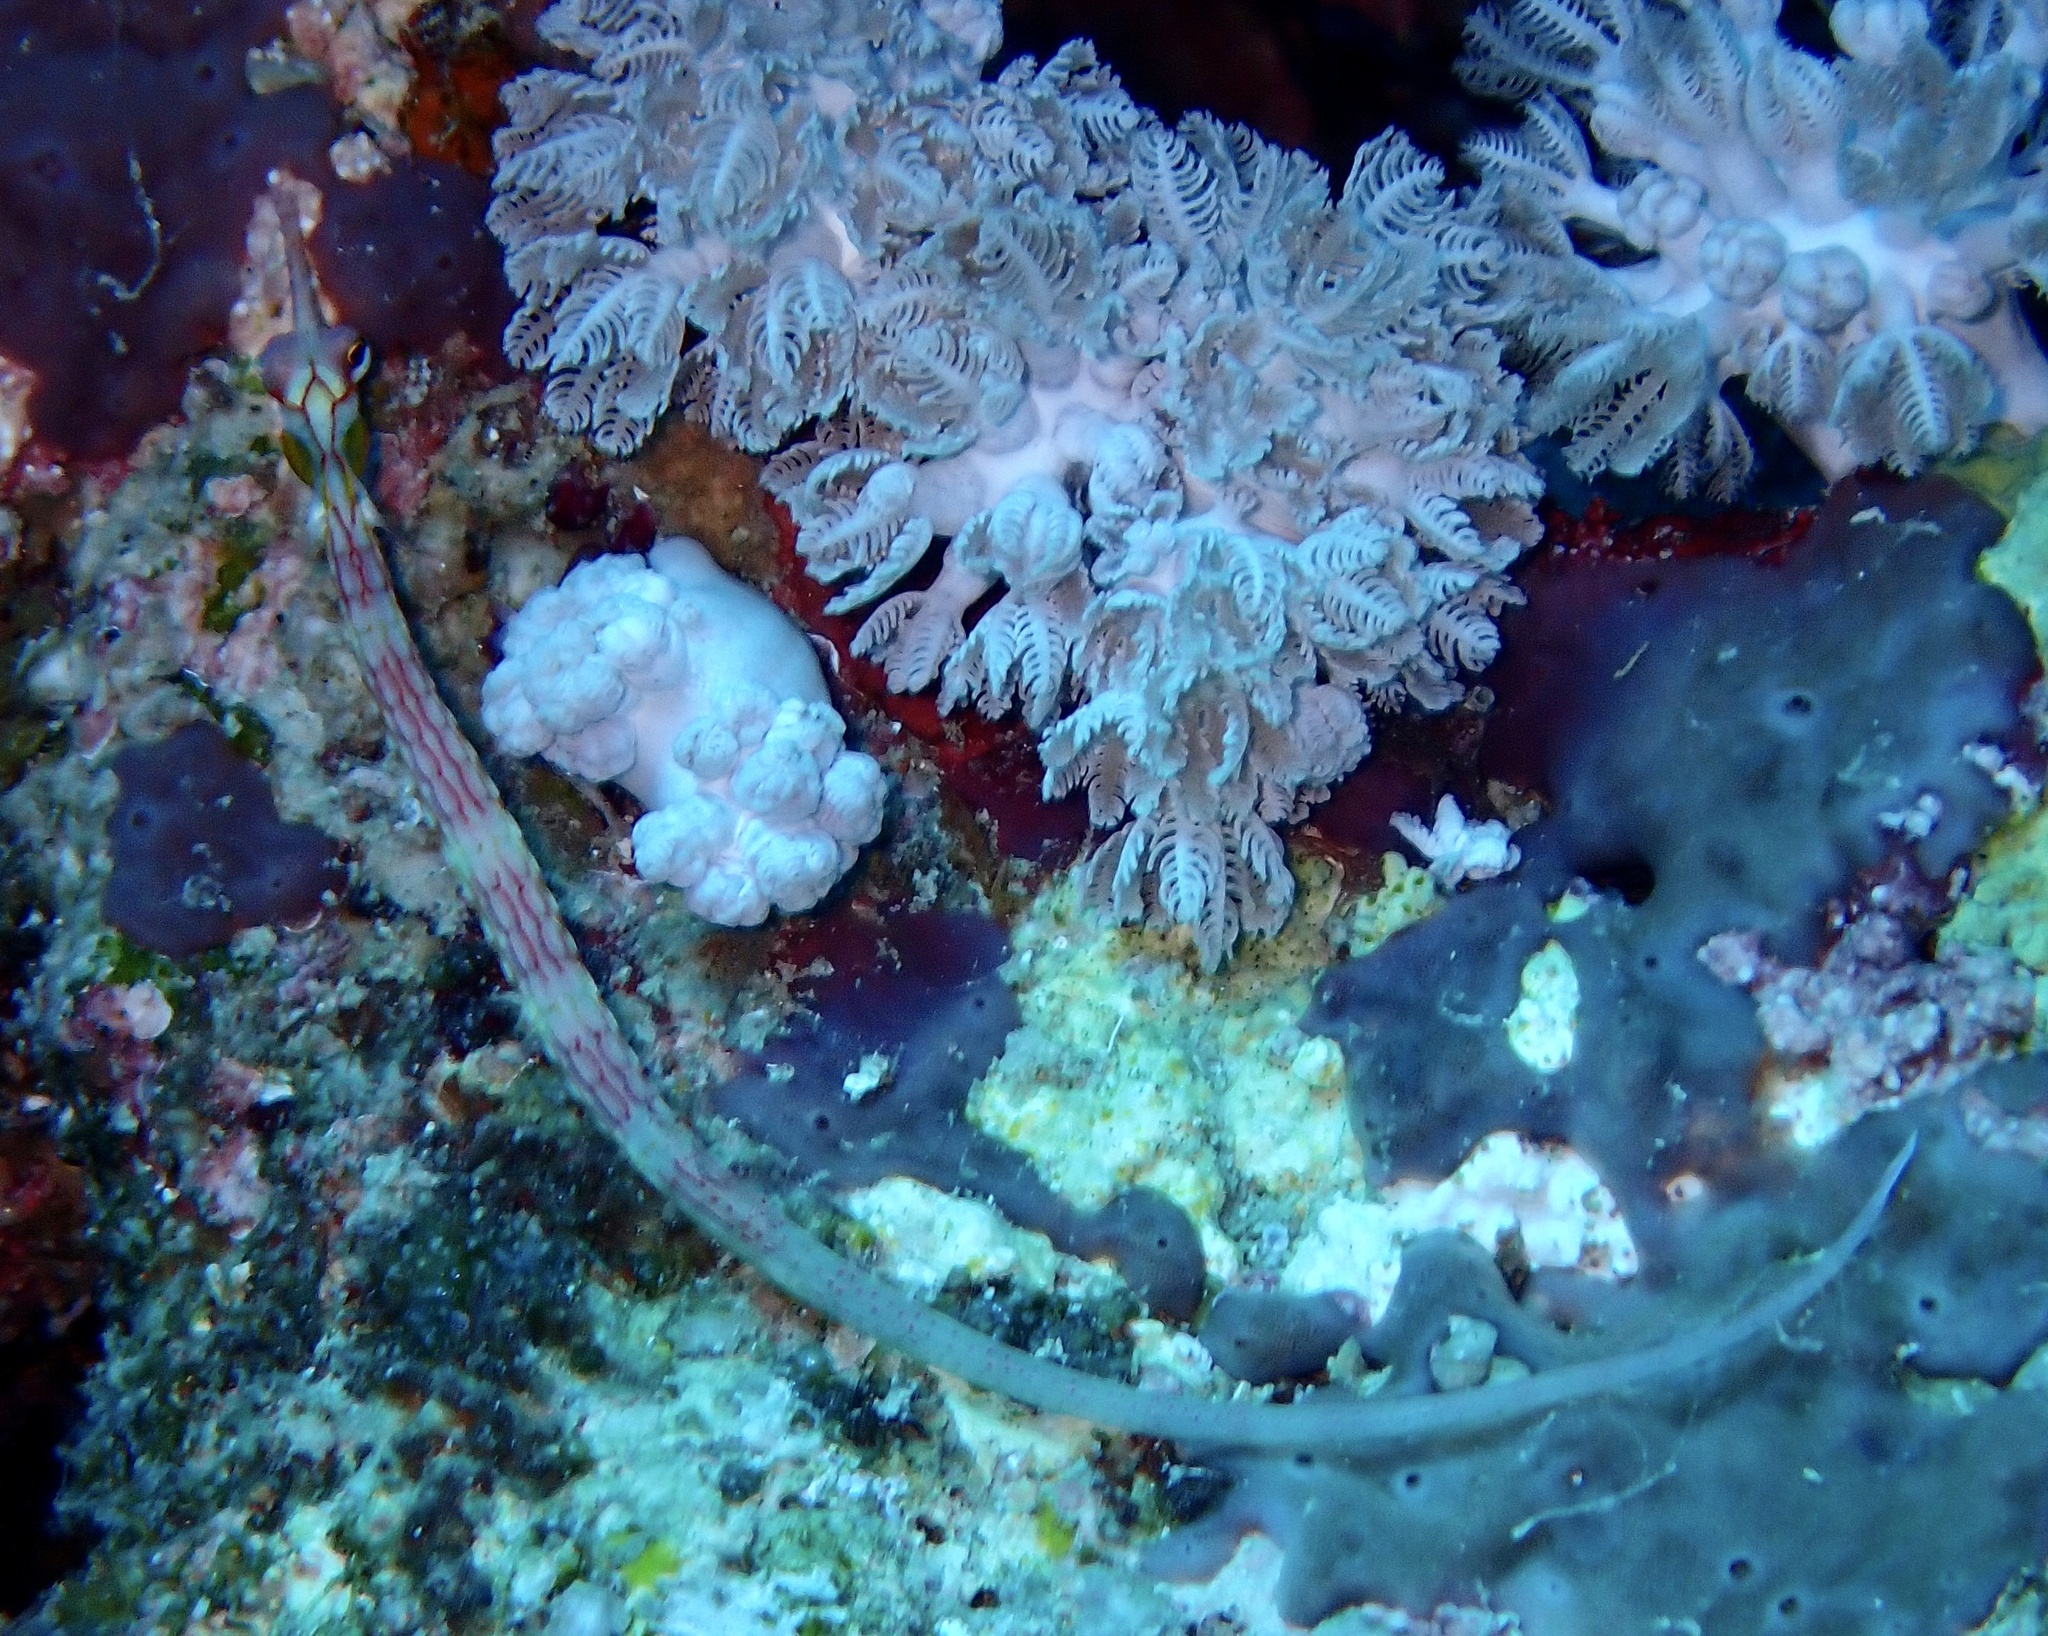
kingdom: Animalia
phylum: Chordata
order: Syngnathiformes
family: Syngnathidae
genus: Corythoichthys
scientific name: Corythoichthys nigripectus
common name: Black-breasted pipefish
